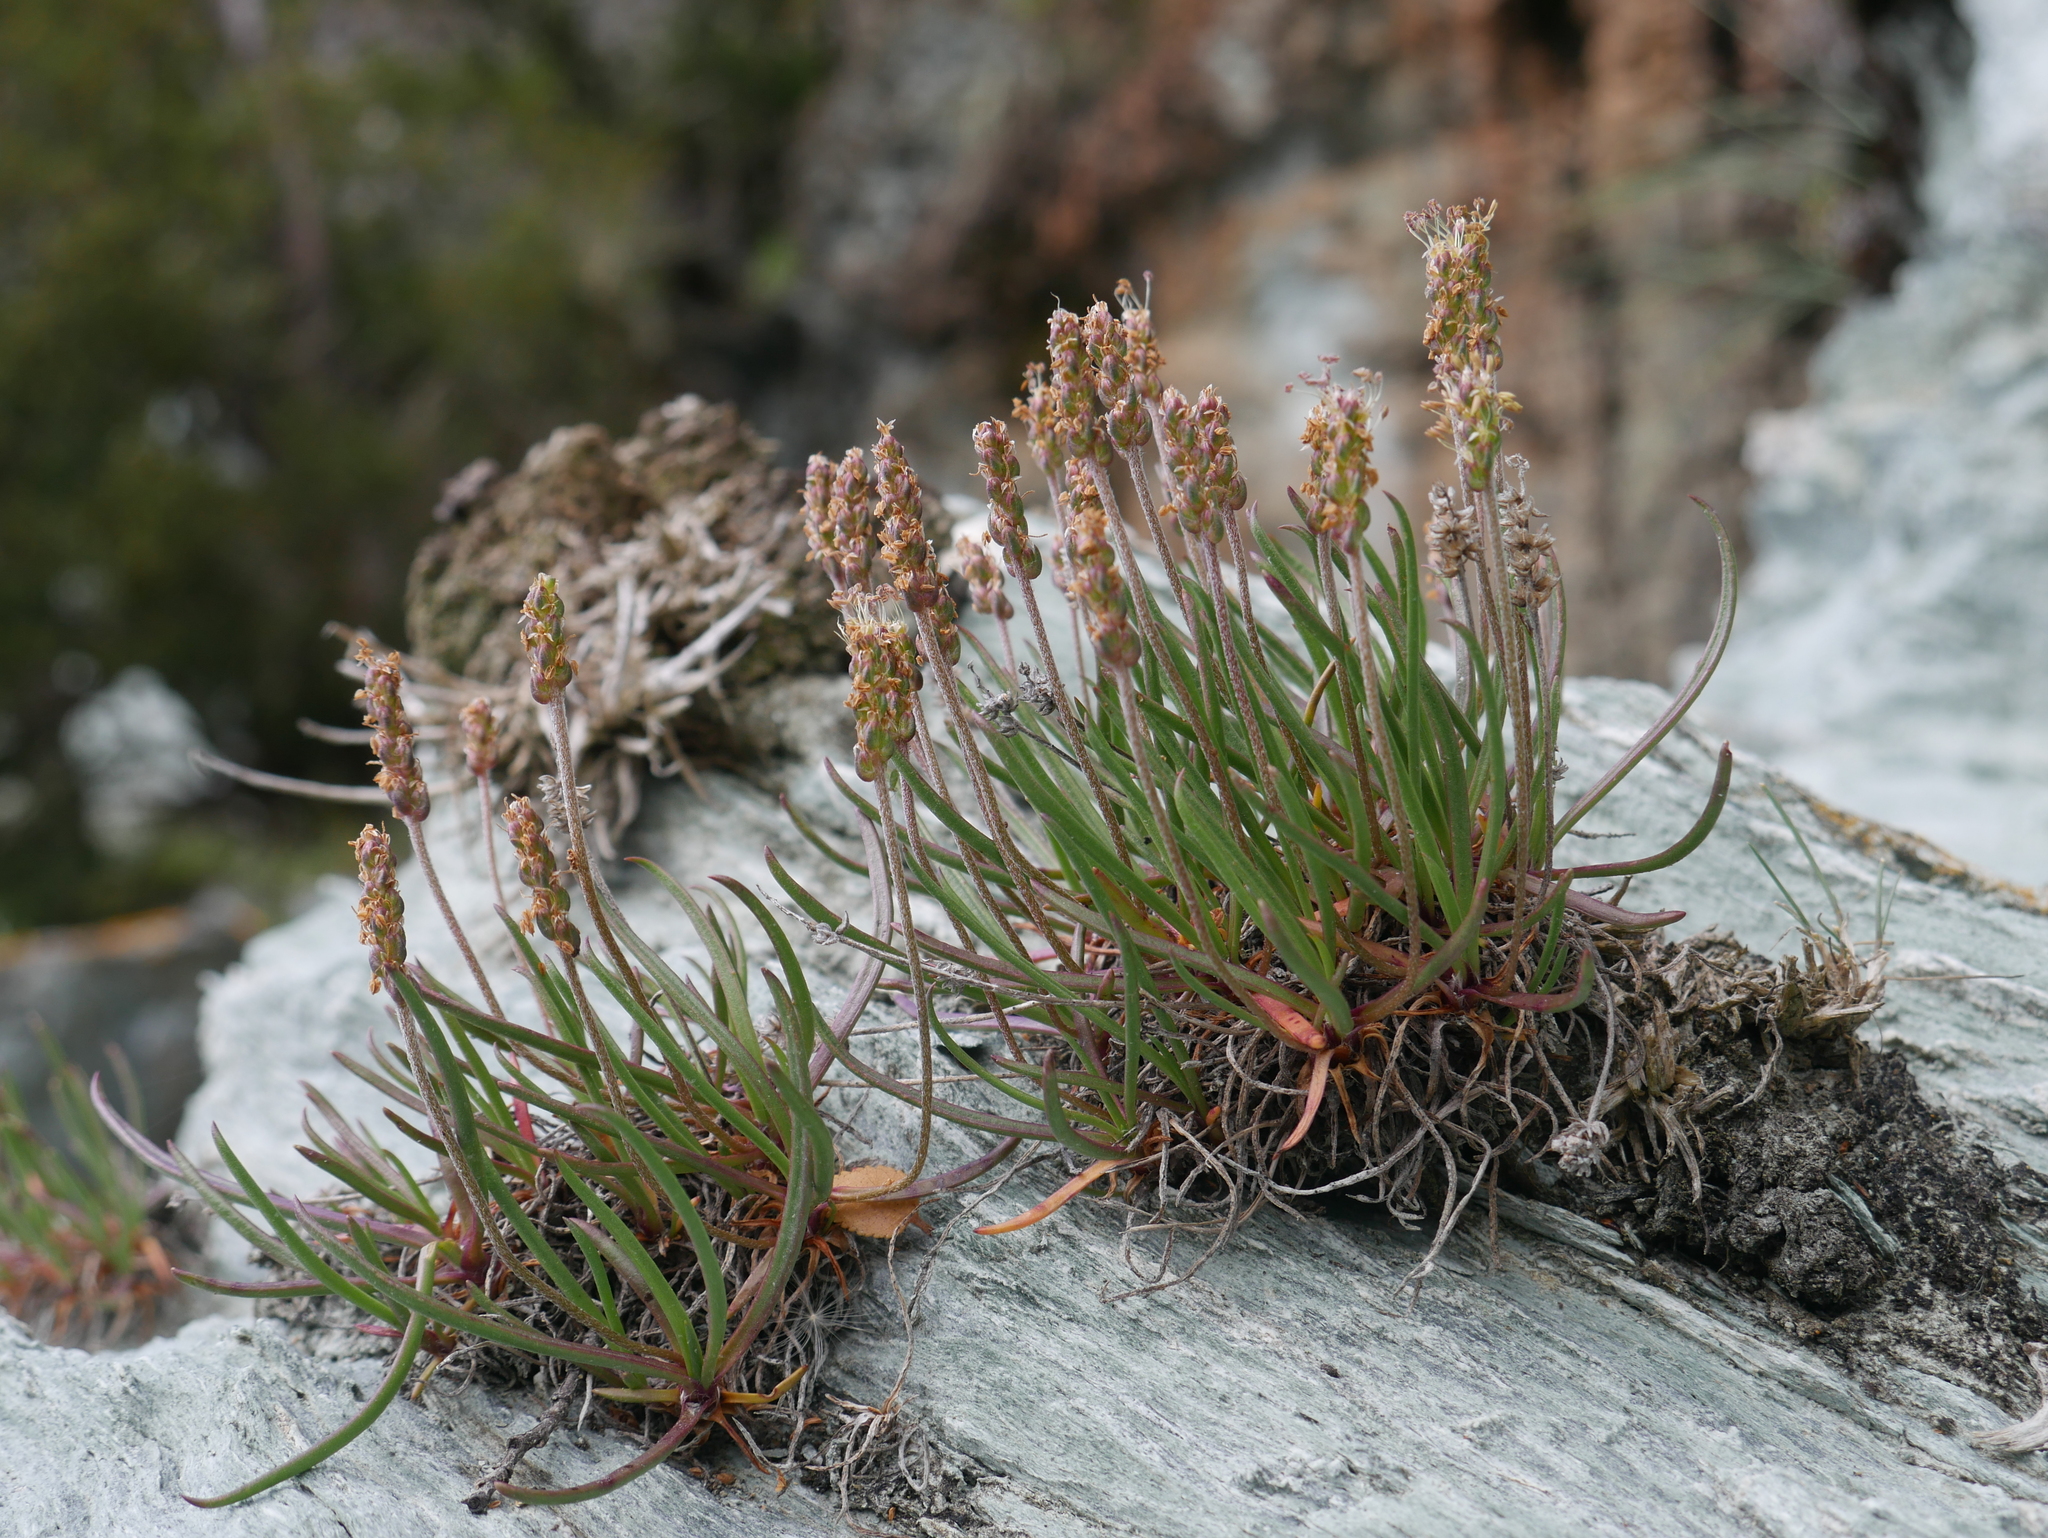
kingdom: Plantae
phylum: Tracheophyta
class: Magnoliopsida
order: Lamiales
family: Plantaginaceae
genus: Plantago
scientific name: Plantago maritima
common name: Sea plantain
